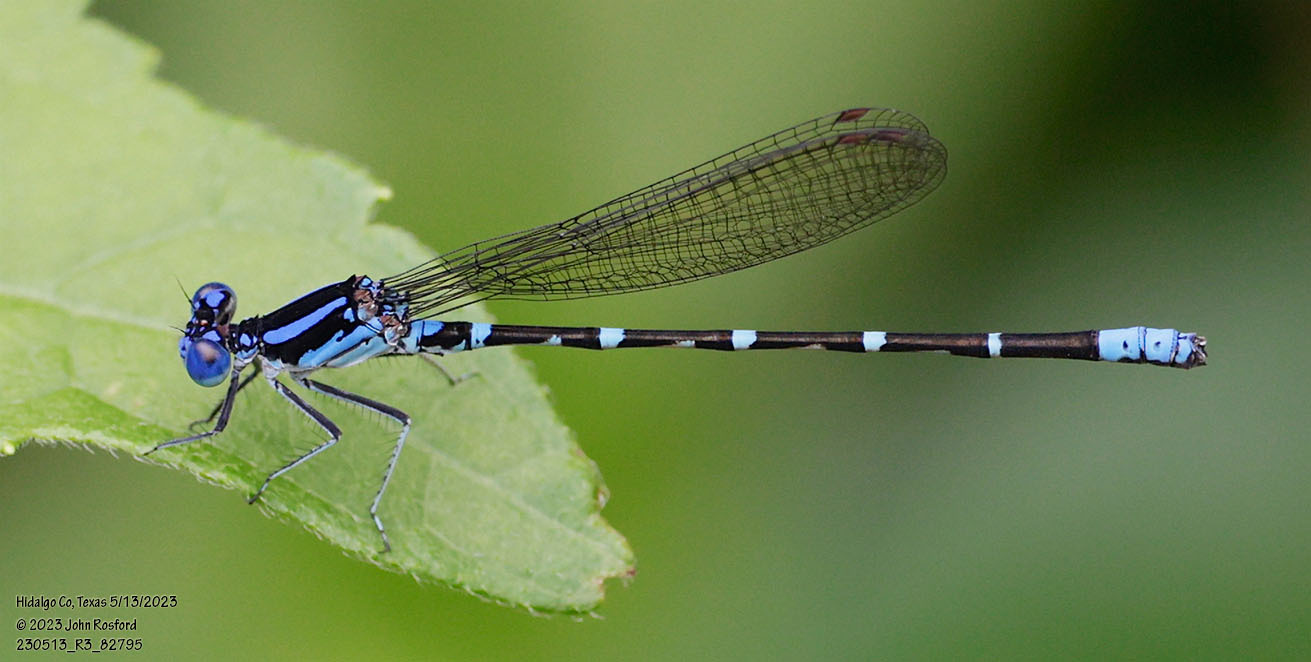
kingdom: Animalia
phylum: Arthropoda
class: Insecta
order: Odonata
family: Coenagrionidae
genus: Argia
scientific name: Argia sedula
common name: Blue-ringed dancer
